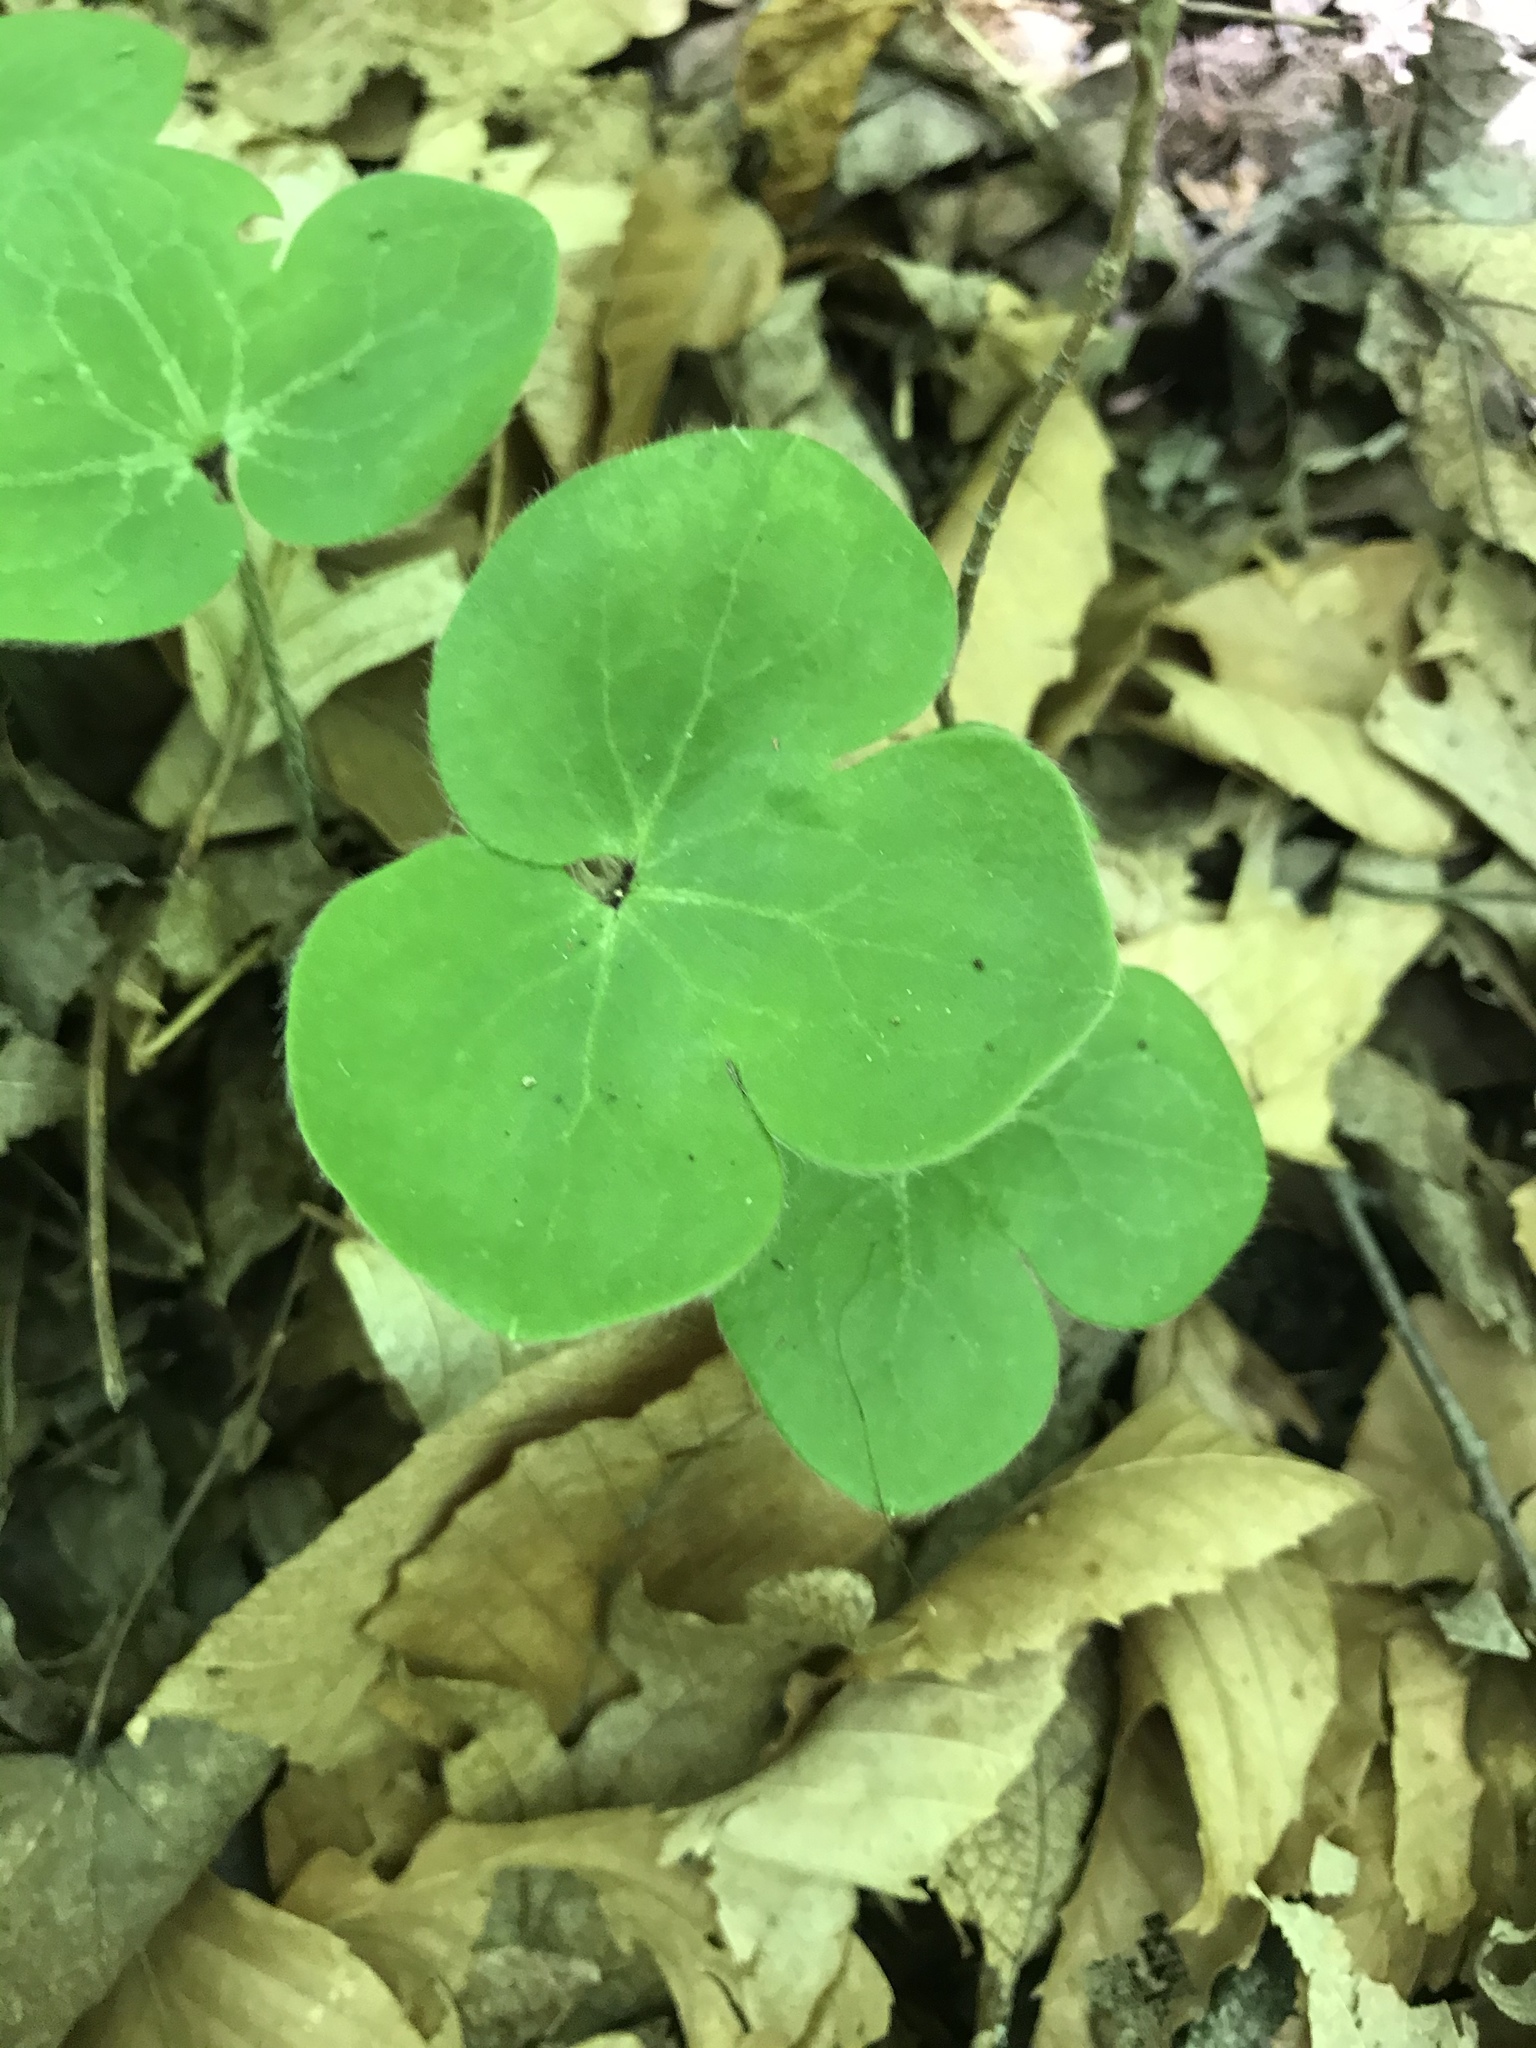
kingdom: Plantae
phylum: Tracheophyta
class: Magnoliopsida
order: Ranunculales
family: Ranunculaceae
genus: Hepatica
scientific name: Hepatica americana
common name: American hepatica
